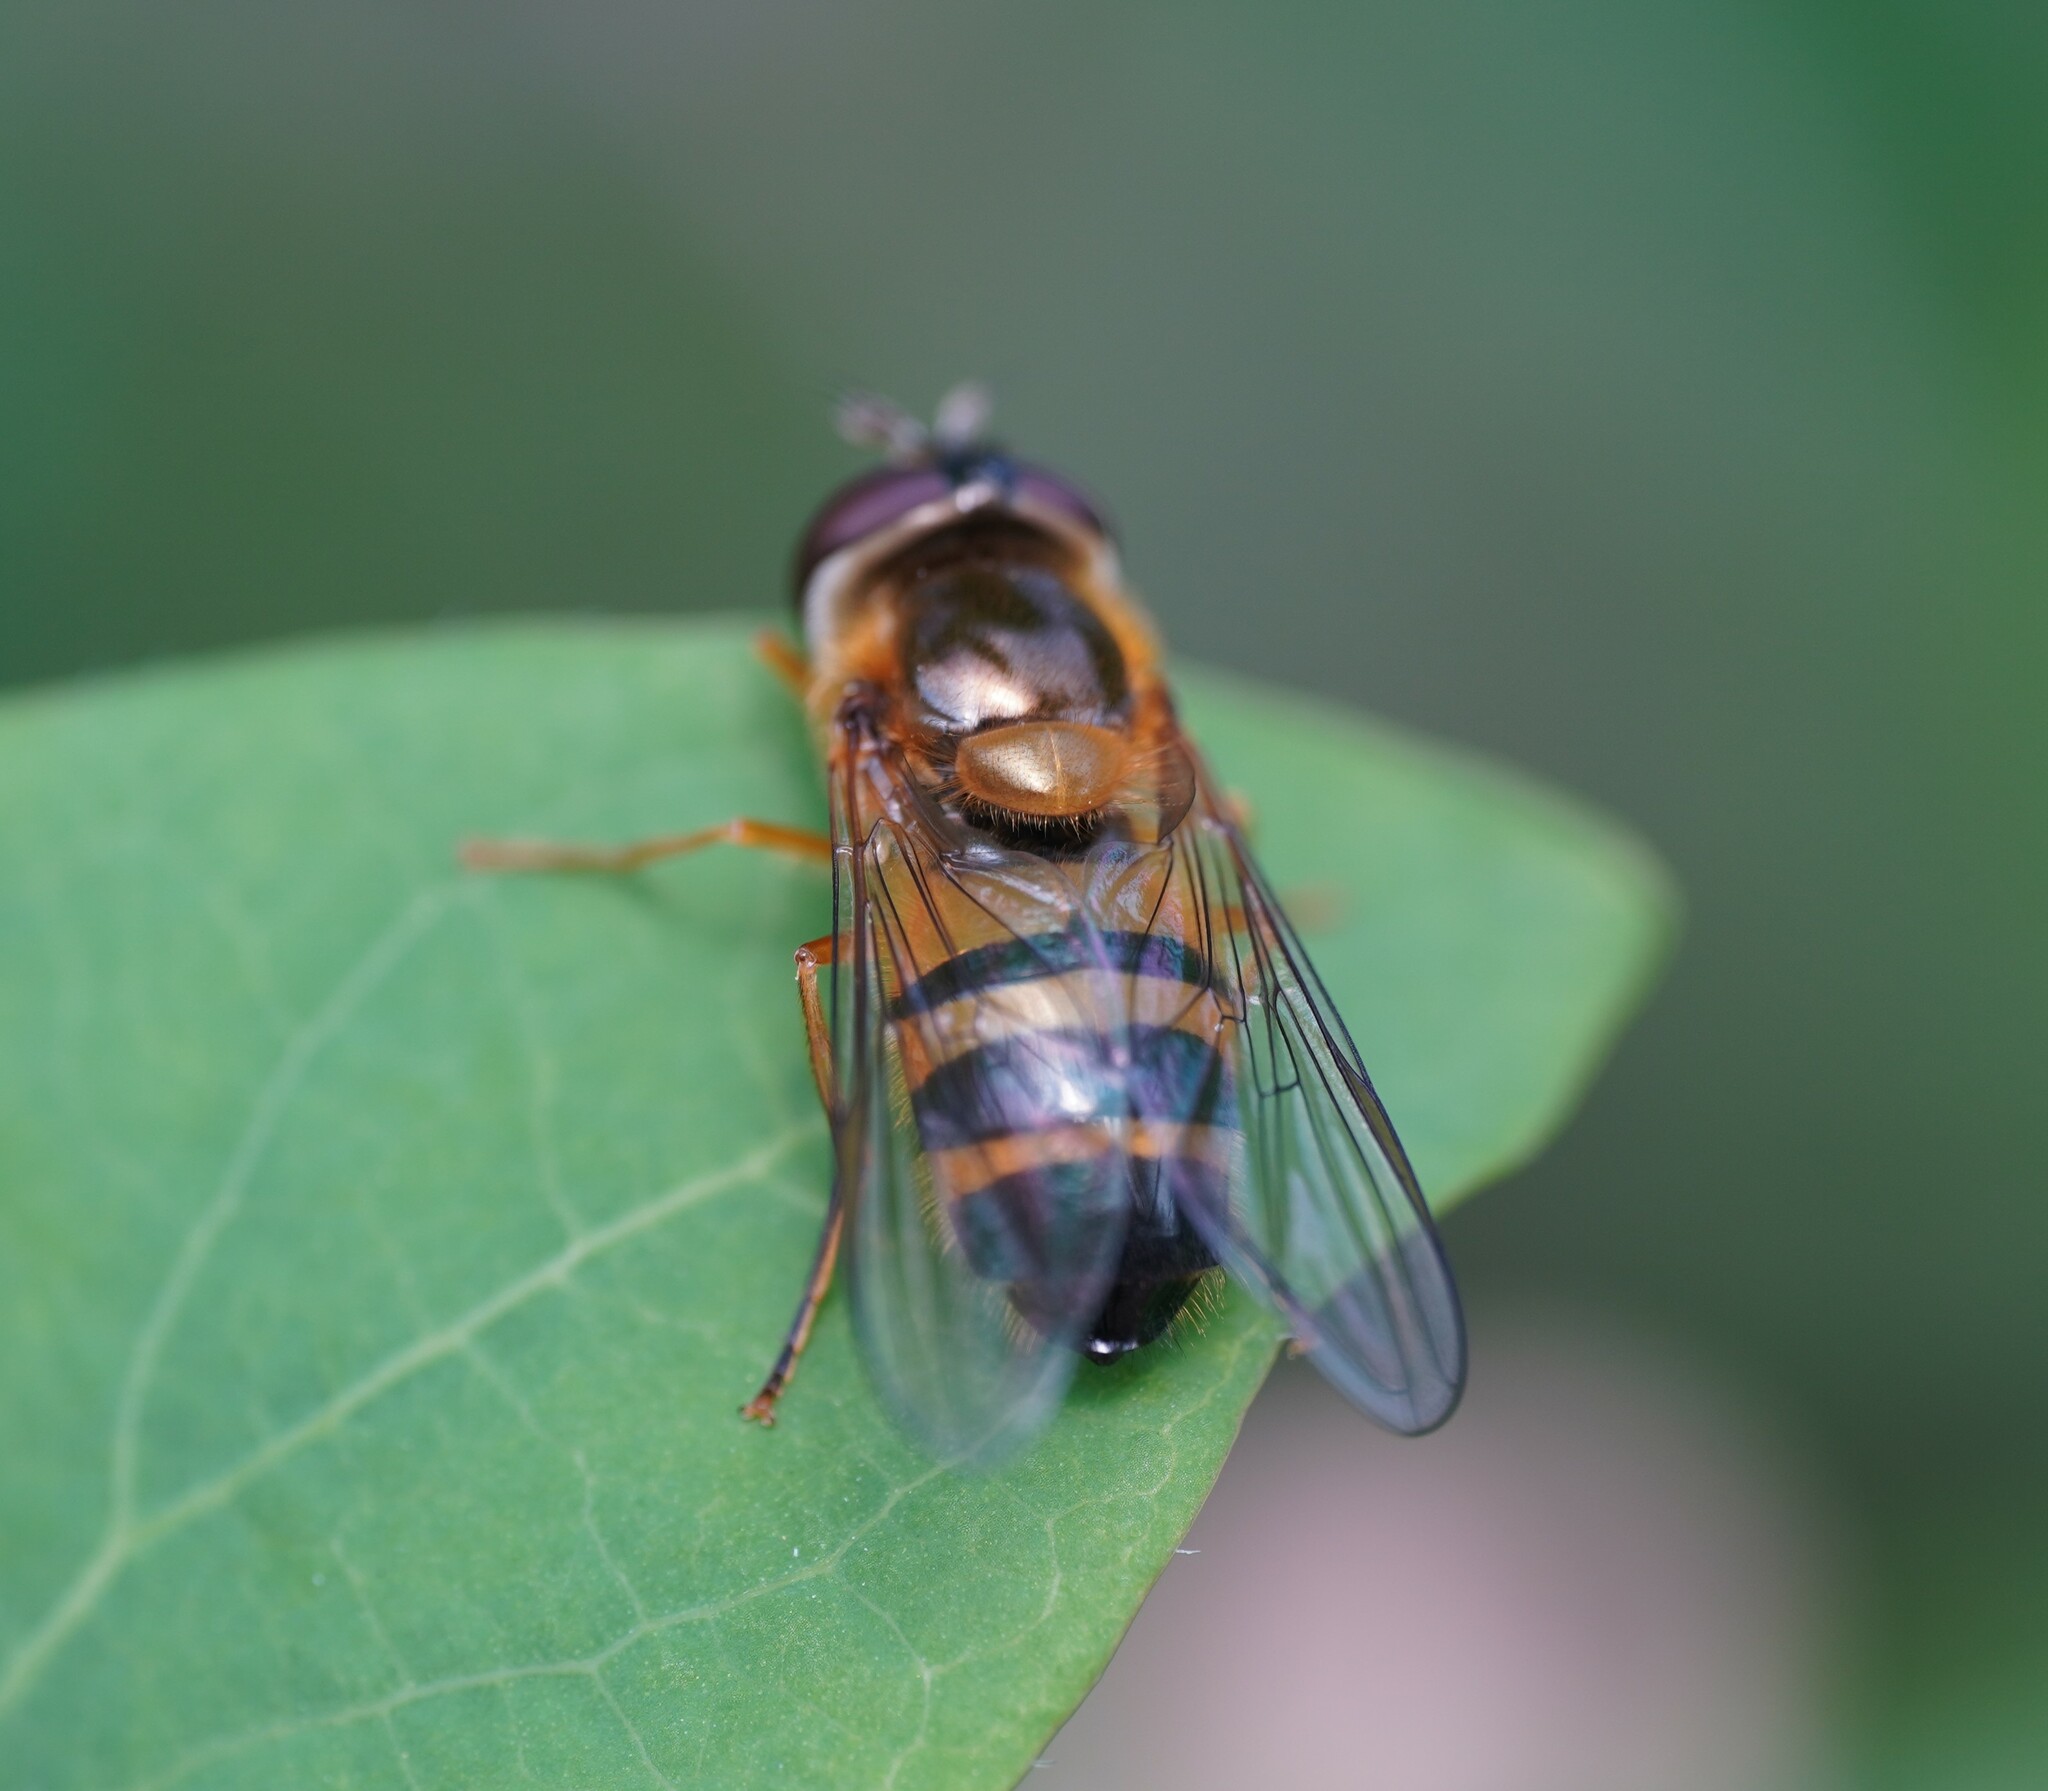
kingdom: Animalia
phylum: Arthropoda
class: Insecta
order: Diptera
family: Syrphidae
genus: Epistrophe
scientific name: Epistrophe eligans
